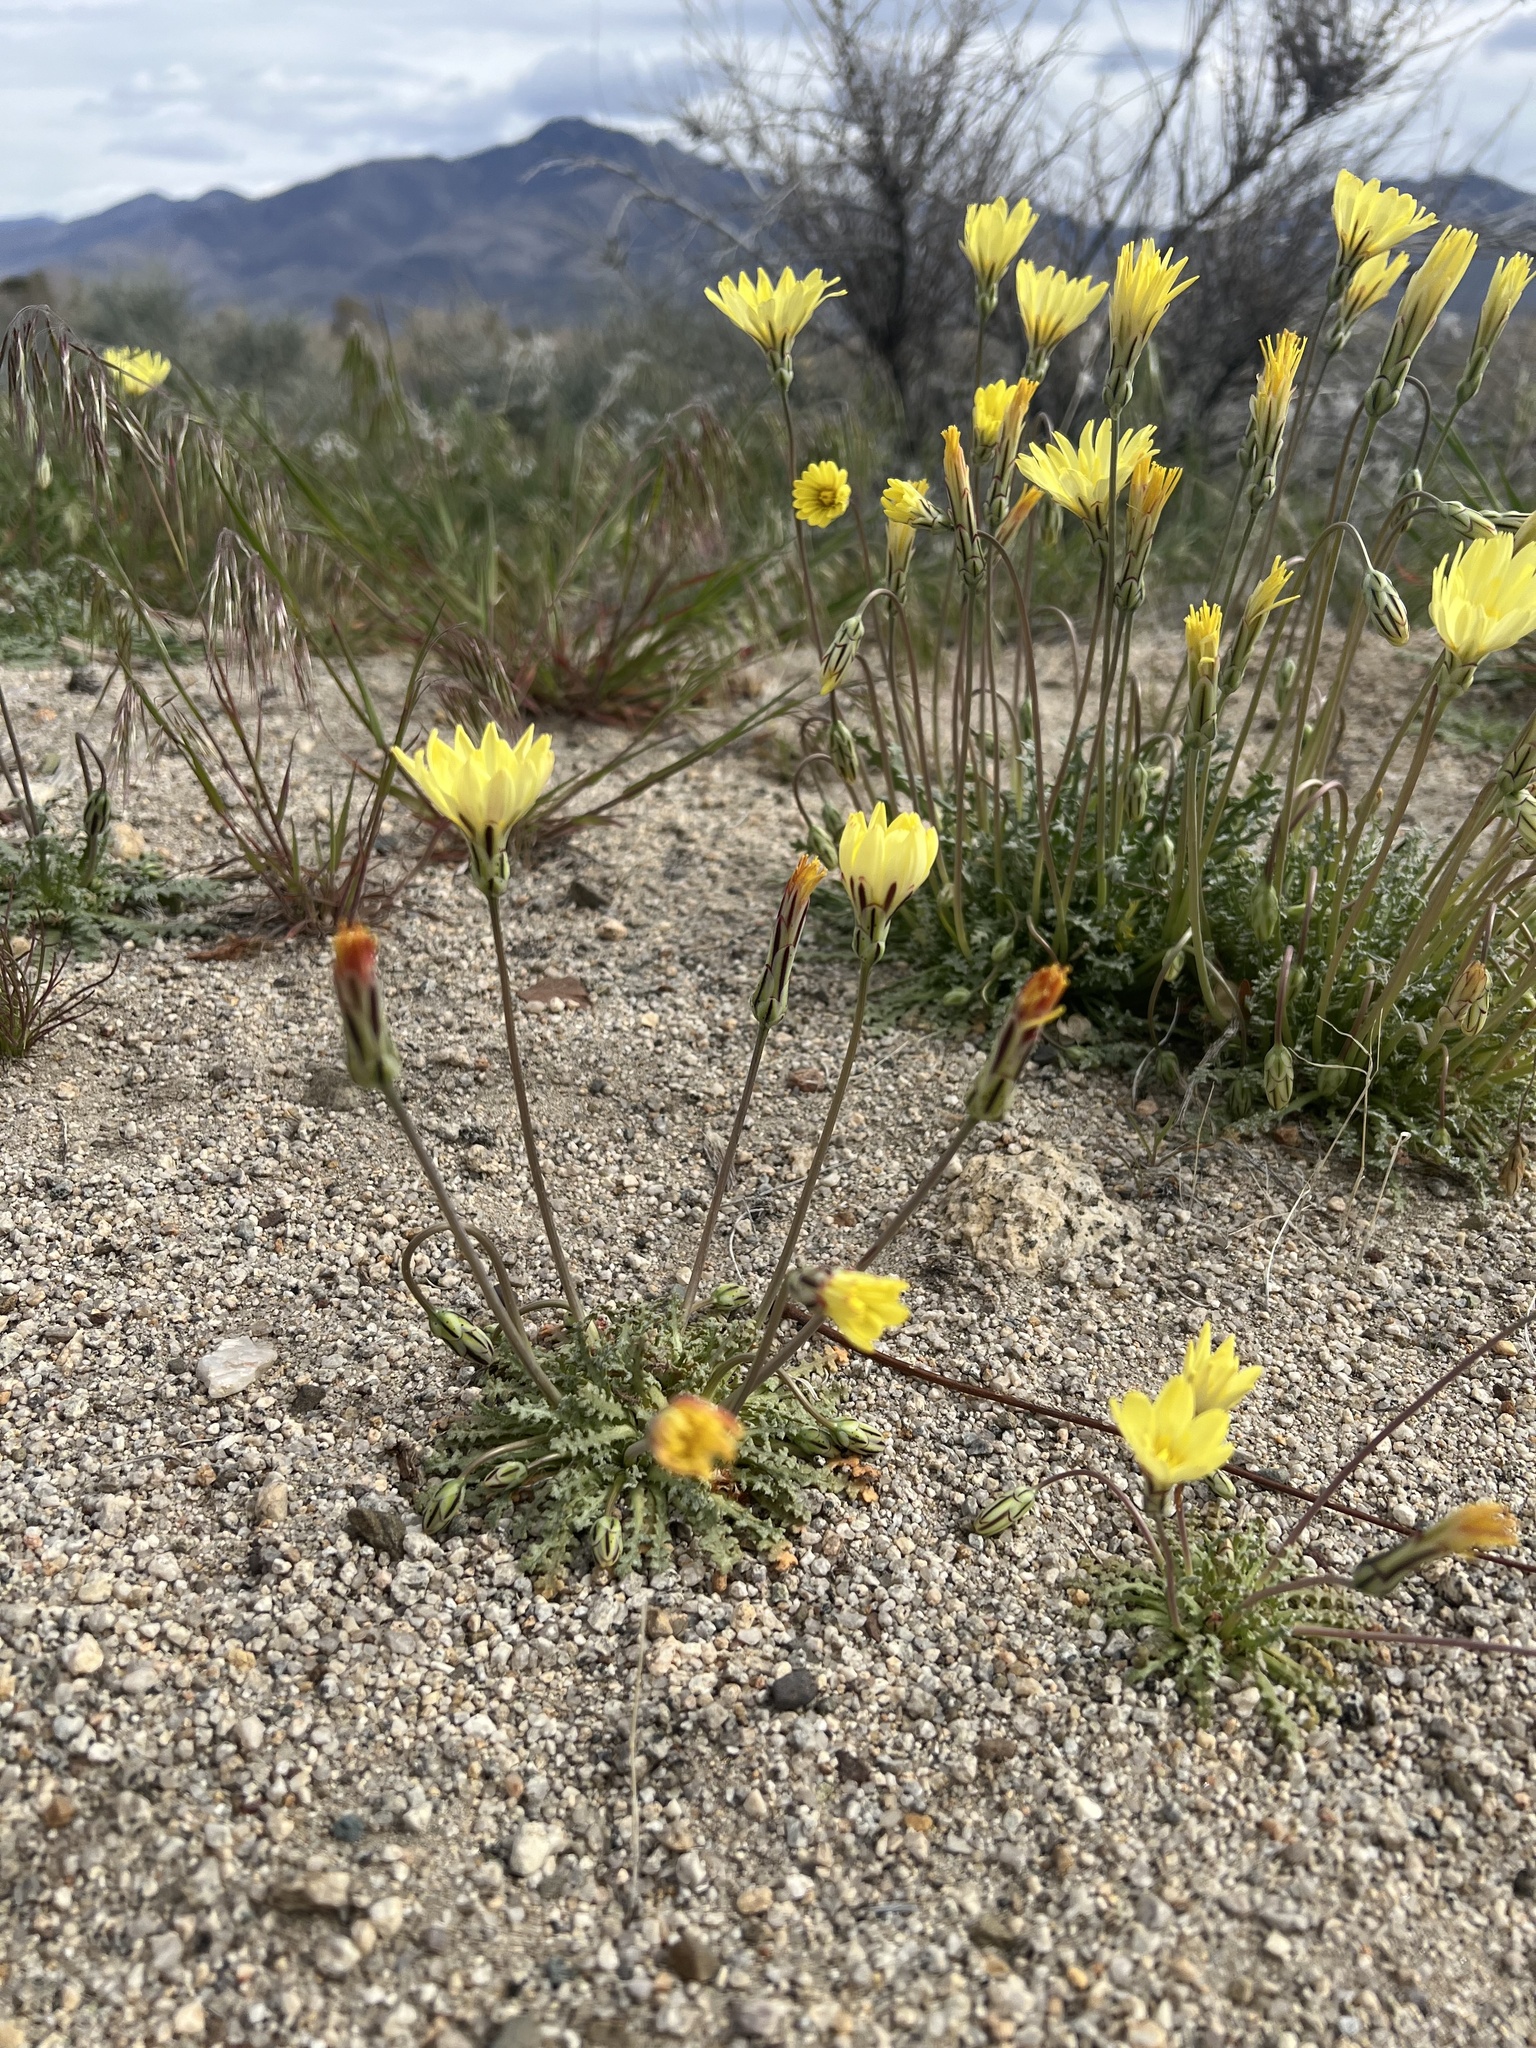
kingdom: Plantae
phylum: Tracheophyta
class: Magnoliopsida
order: Asterales
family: Asteraceae
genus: Anisocoma
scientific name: Anisocoma acaulis
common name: Scalebud
